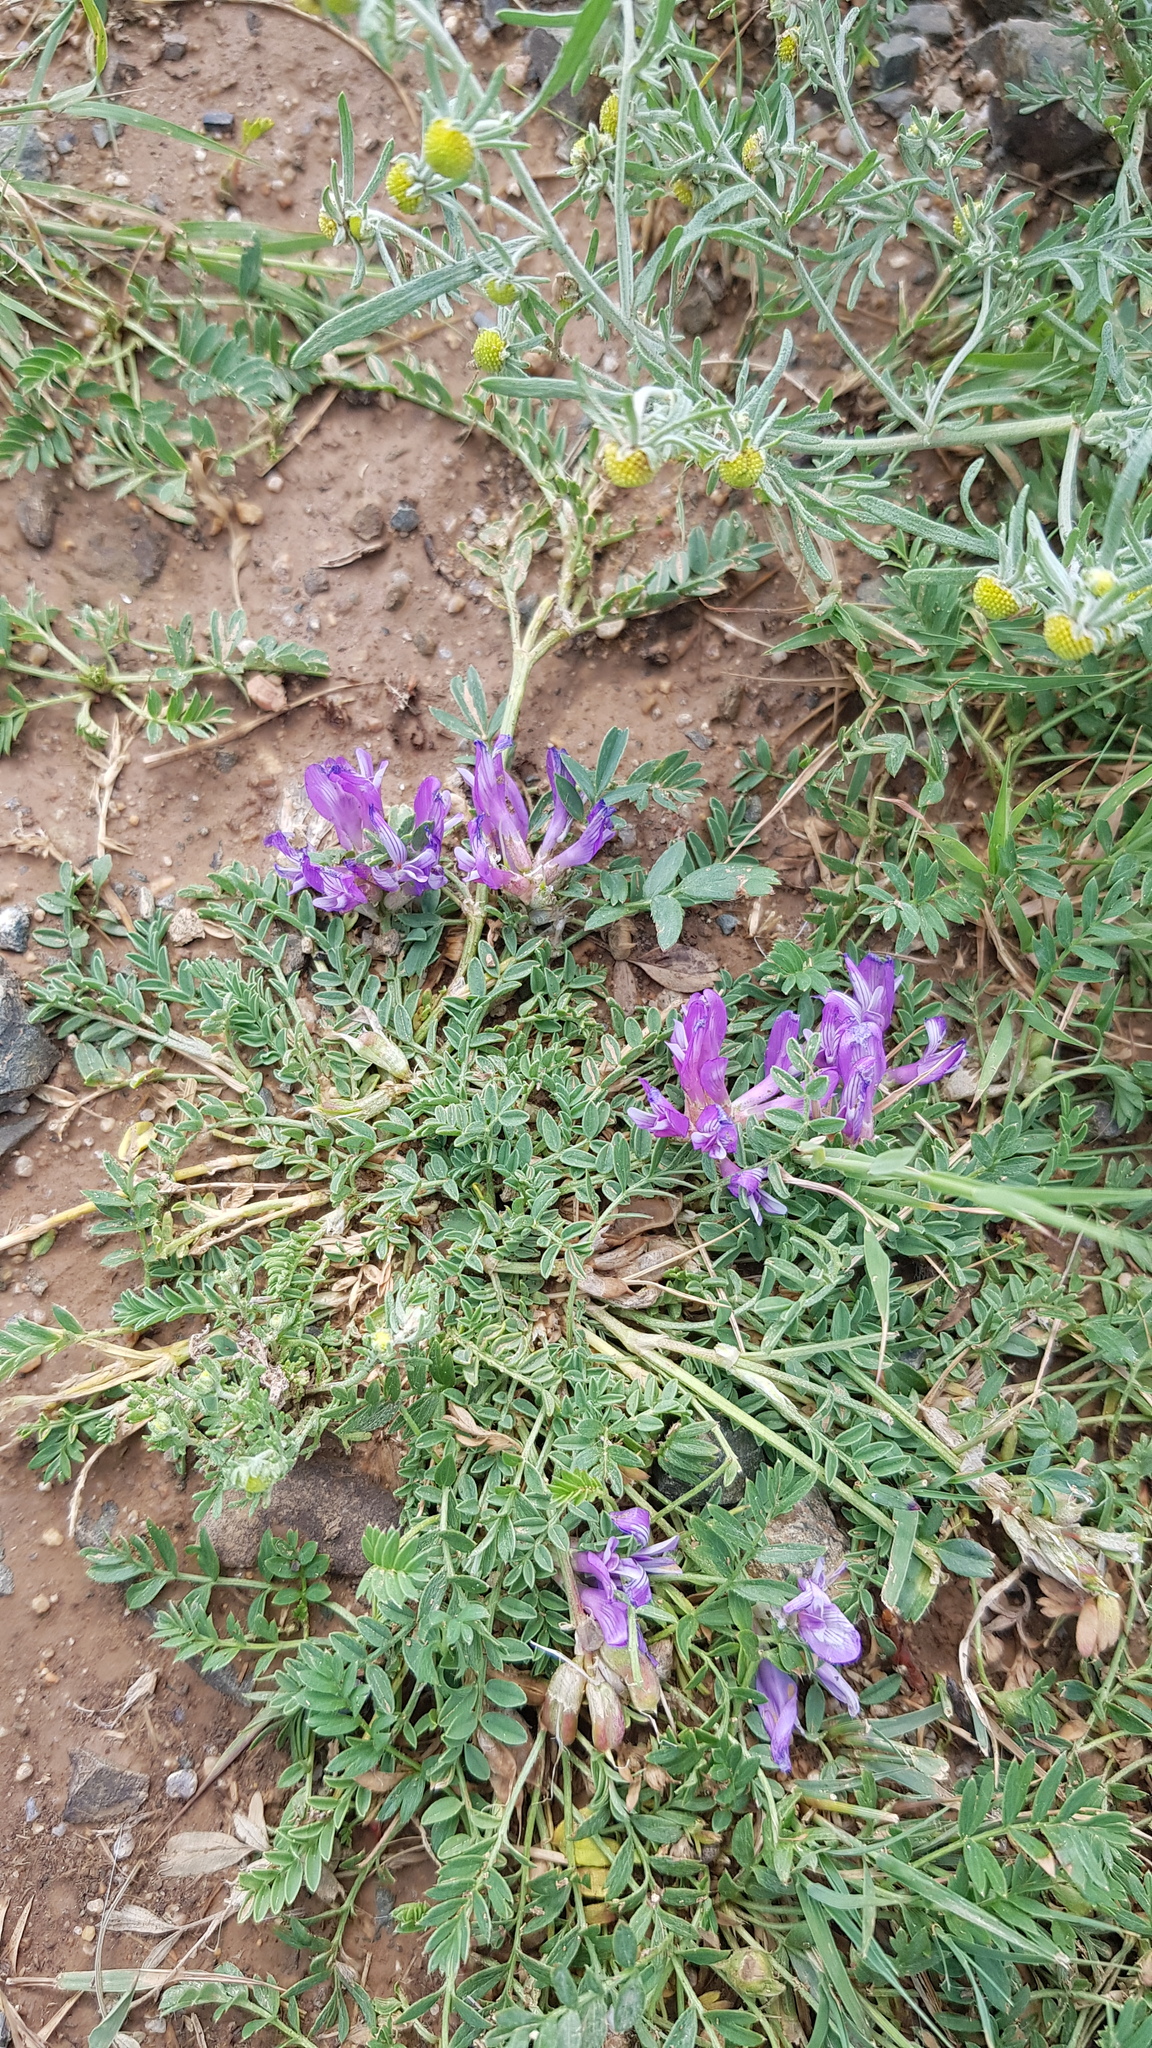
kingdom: Plantae
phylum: Tracheophyta
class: Magnoliopsida
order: Fabales
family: Fabaceae
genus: Astragalus
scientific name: Astragalus laxmannii
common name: Laxmann's milk-vetch
